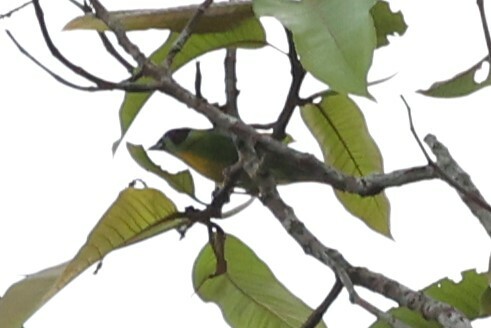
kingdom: Animalia
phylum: Chordata
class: Aves
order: Passeriformes
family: Thraupidae
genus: Tangara
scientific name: Tangara schrankii
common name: Green-and-gold tanager
